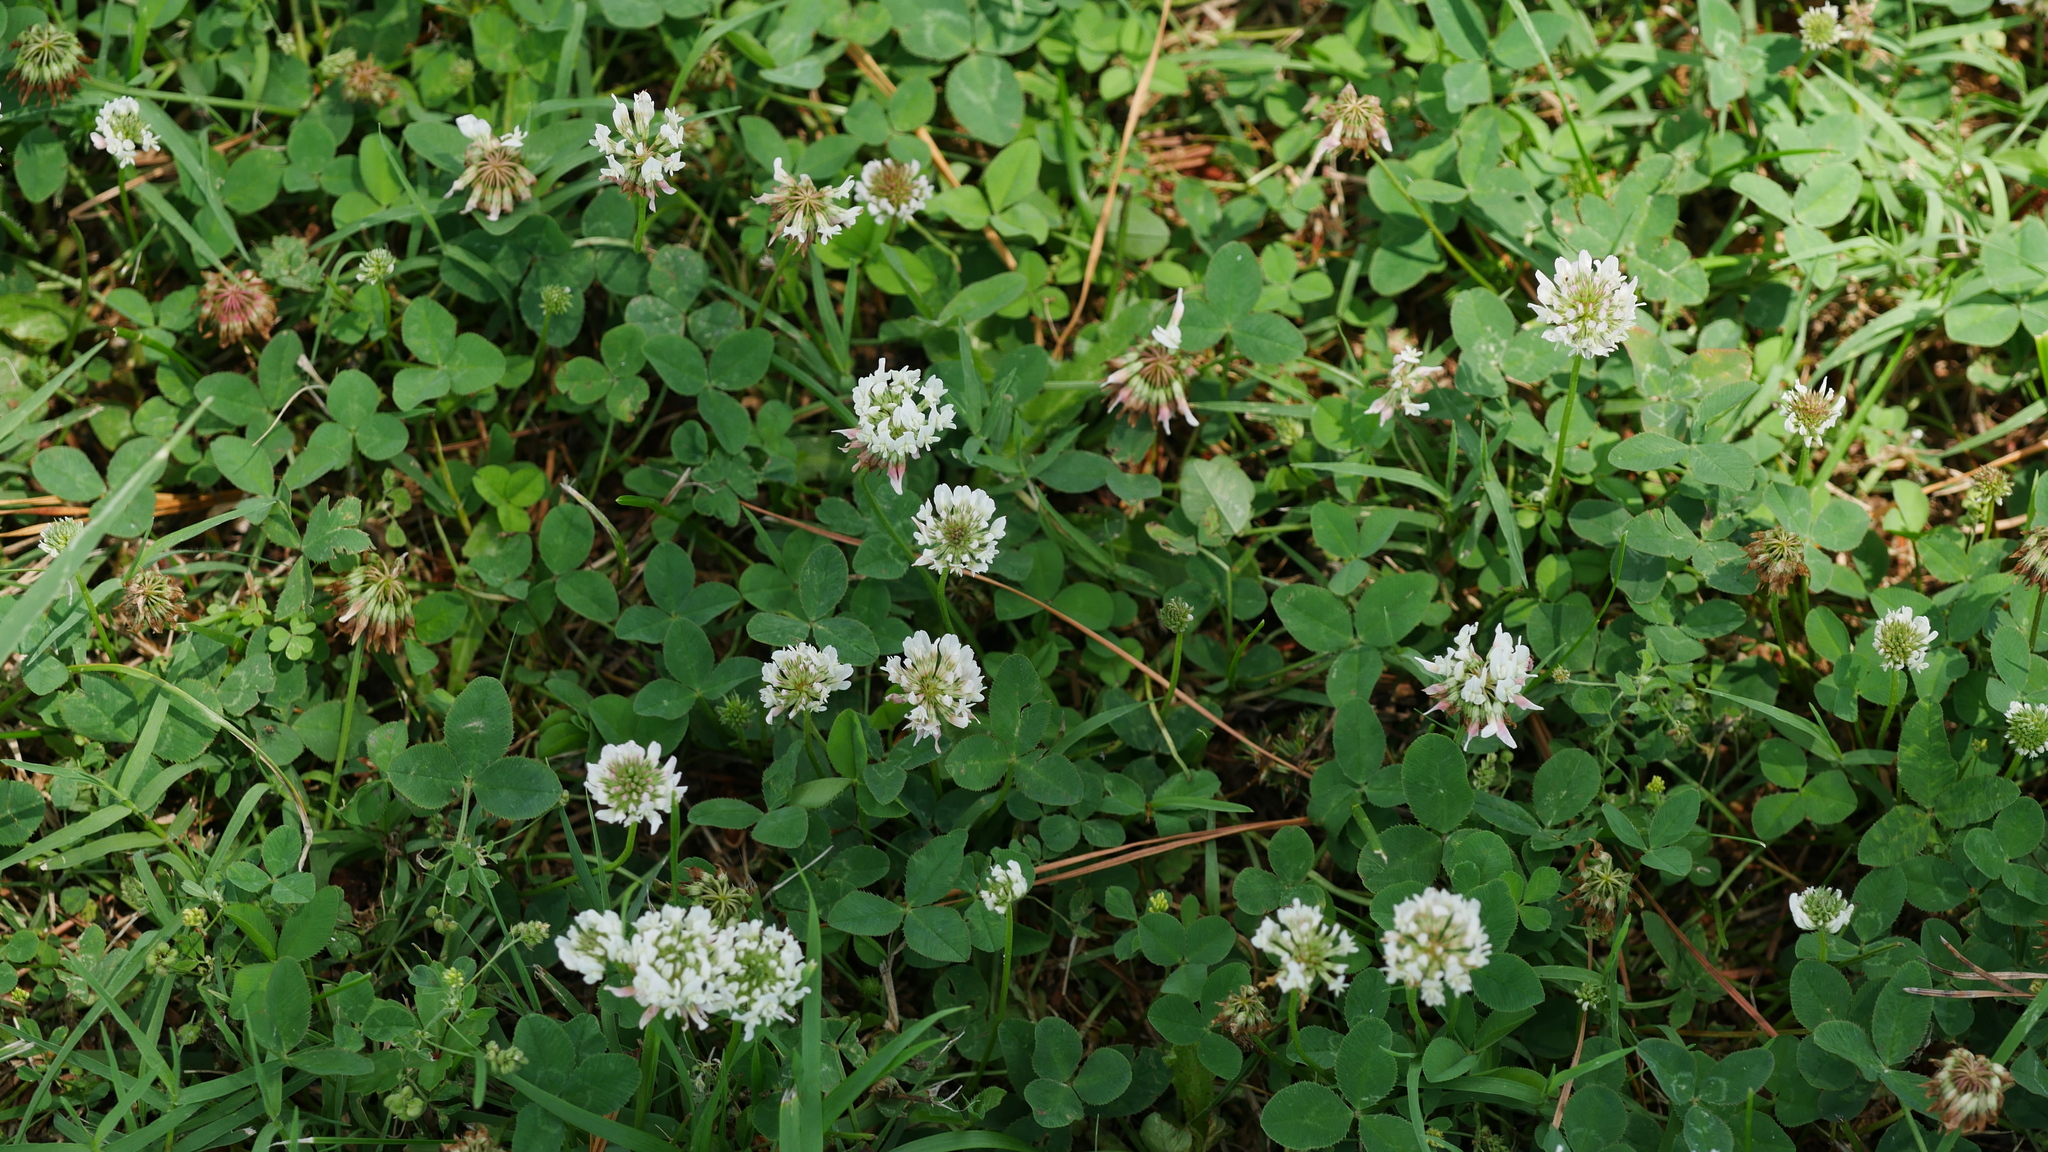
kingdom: Plantae
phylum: Tracheophyta
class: Magnoliopsida
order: Fabales
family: Fabaceae
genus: Trifolium
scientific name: Trifolium repens
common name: White clover
